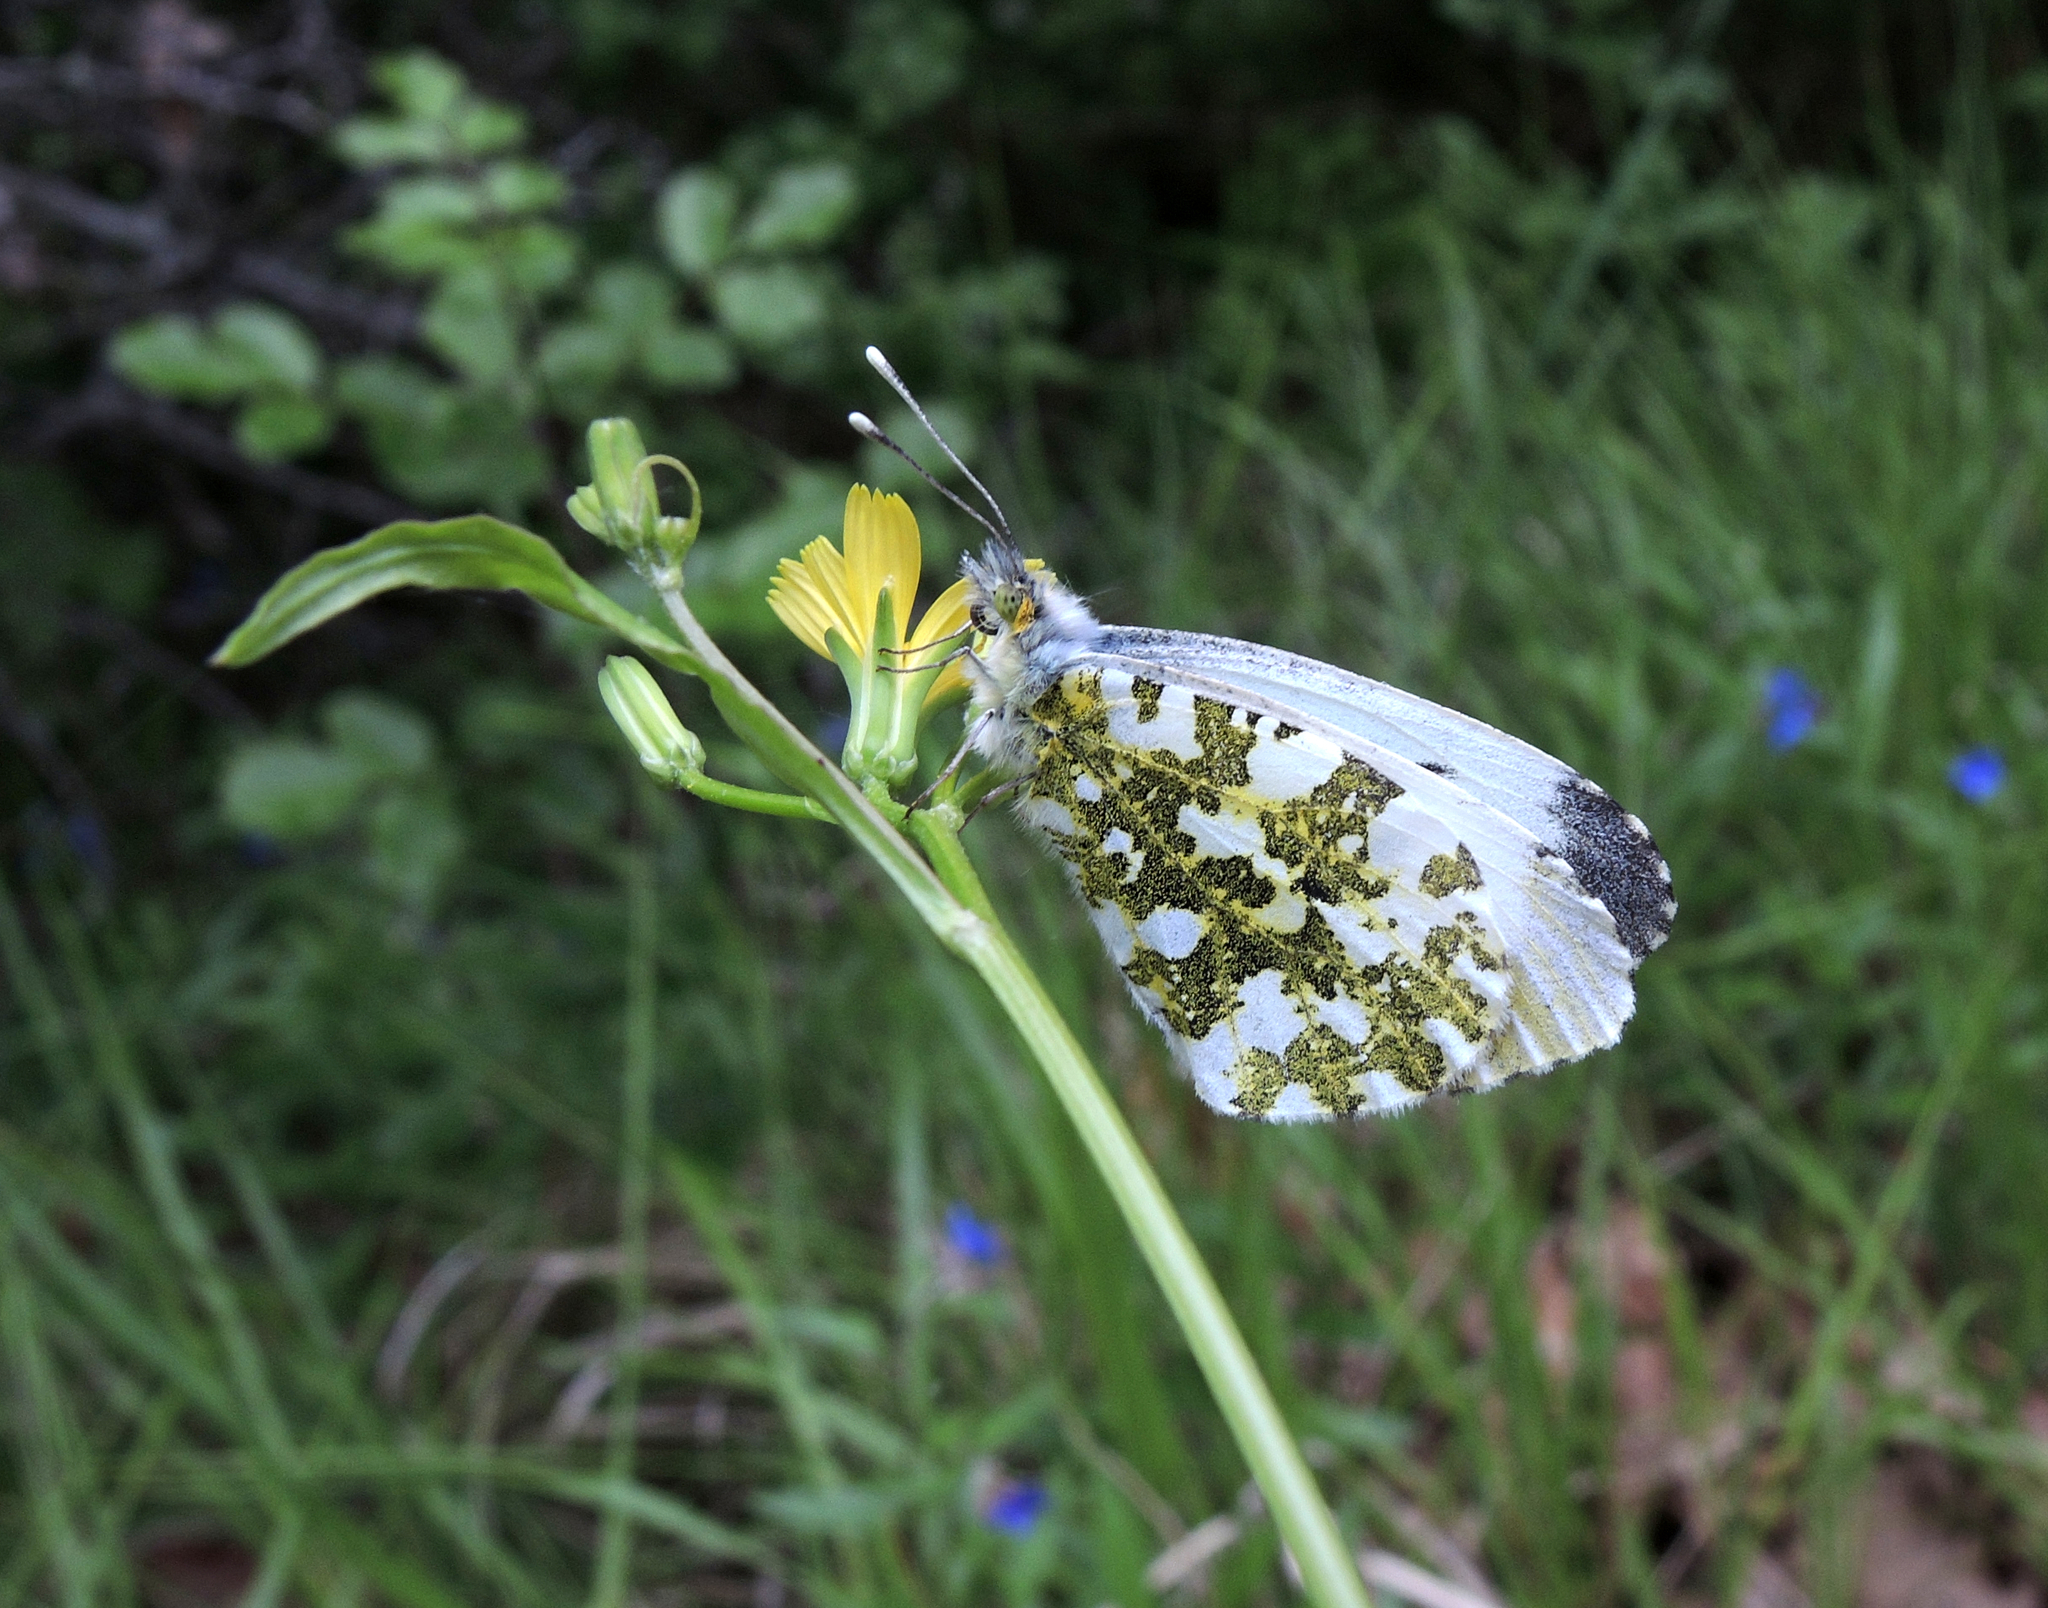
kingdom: Animalia
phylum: Arthropoda
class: Insecta
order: Lepidoptera
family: Pieridae
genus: Anthocharis
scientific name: Anthocharis cardamines
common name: Orange-tip
